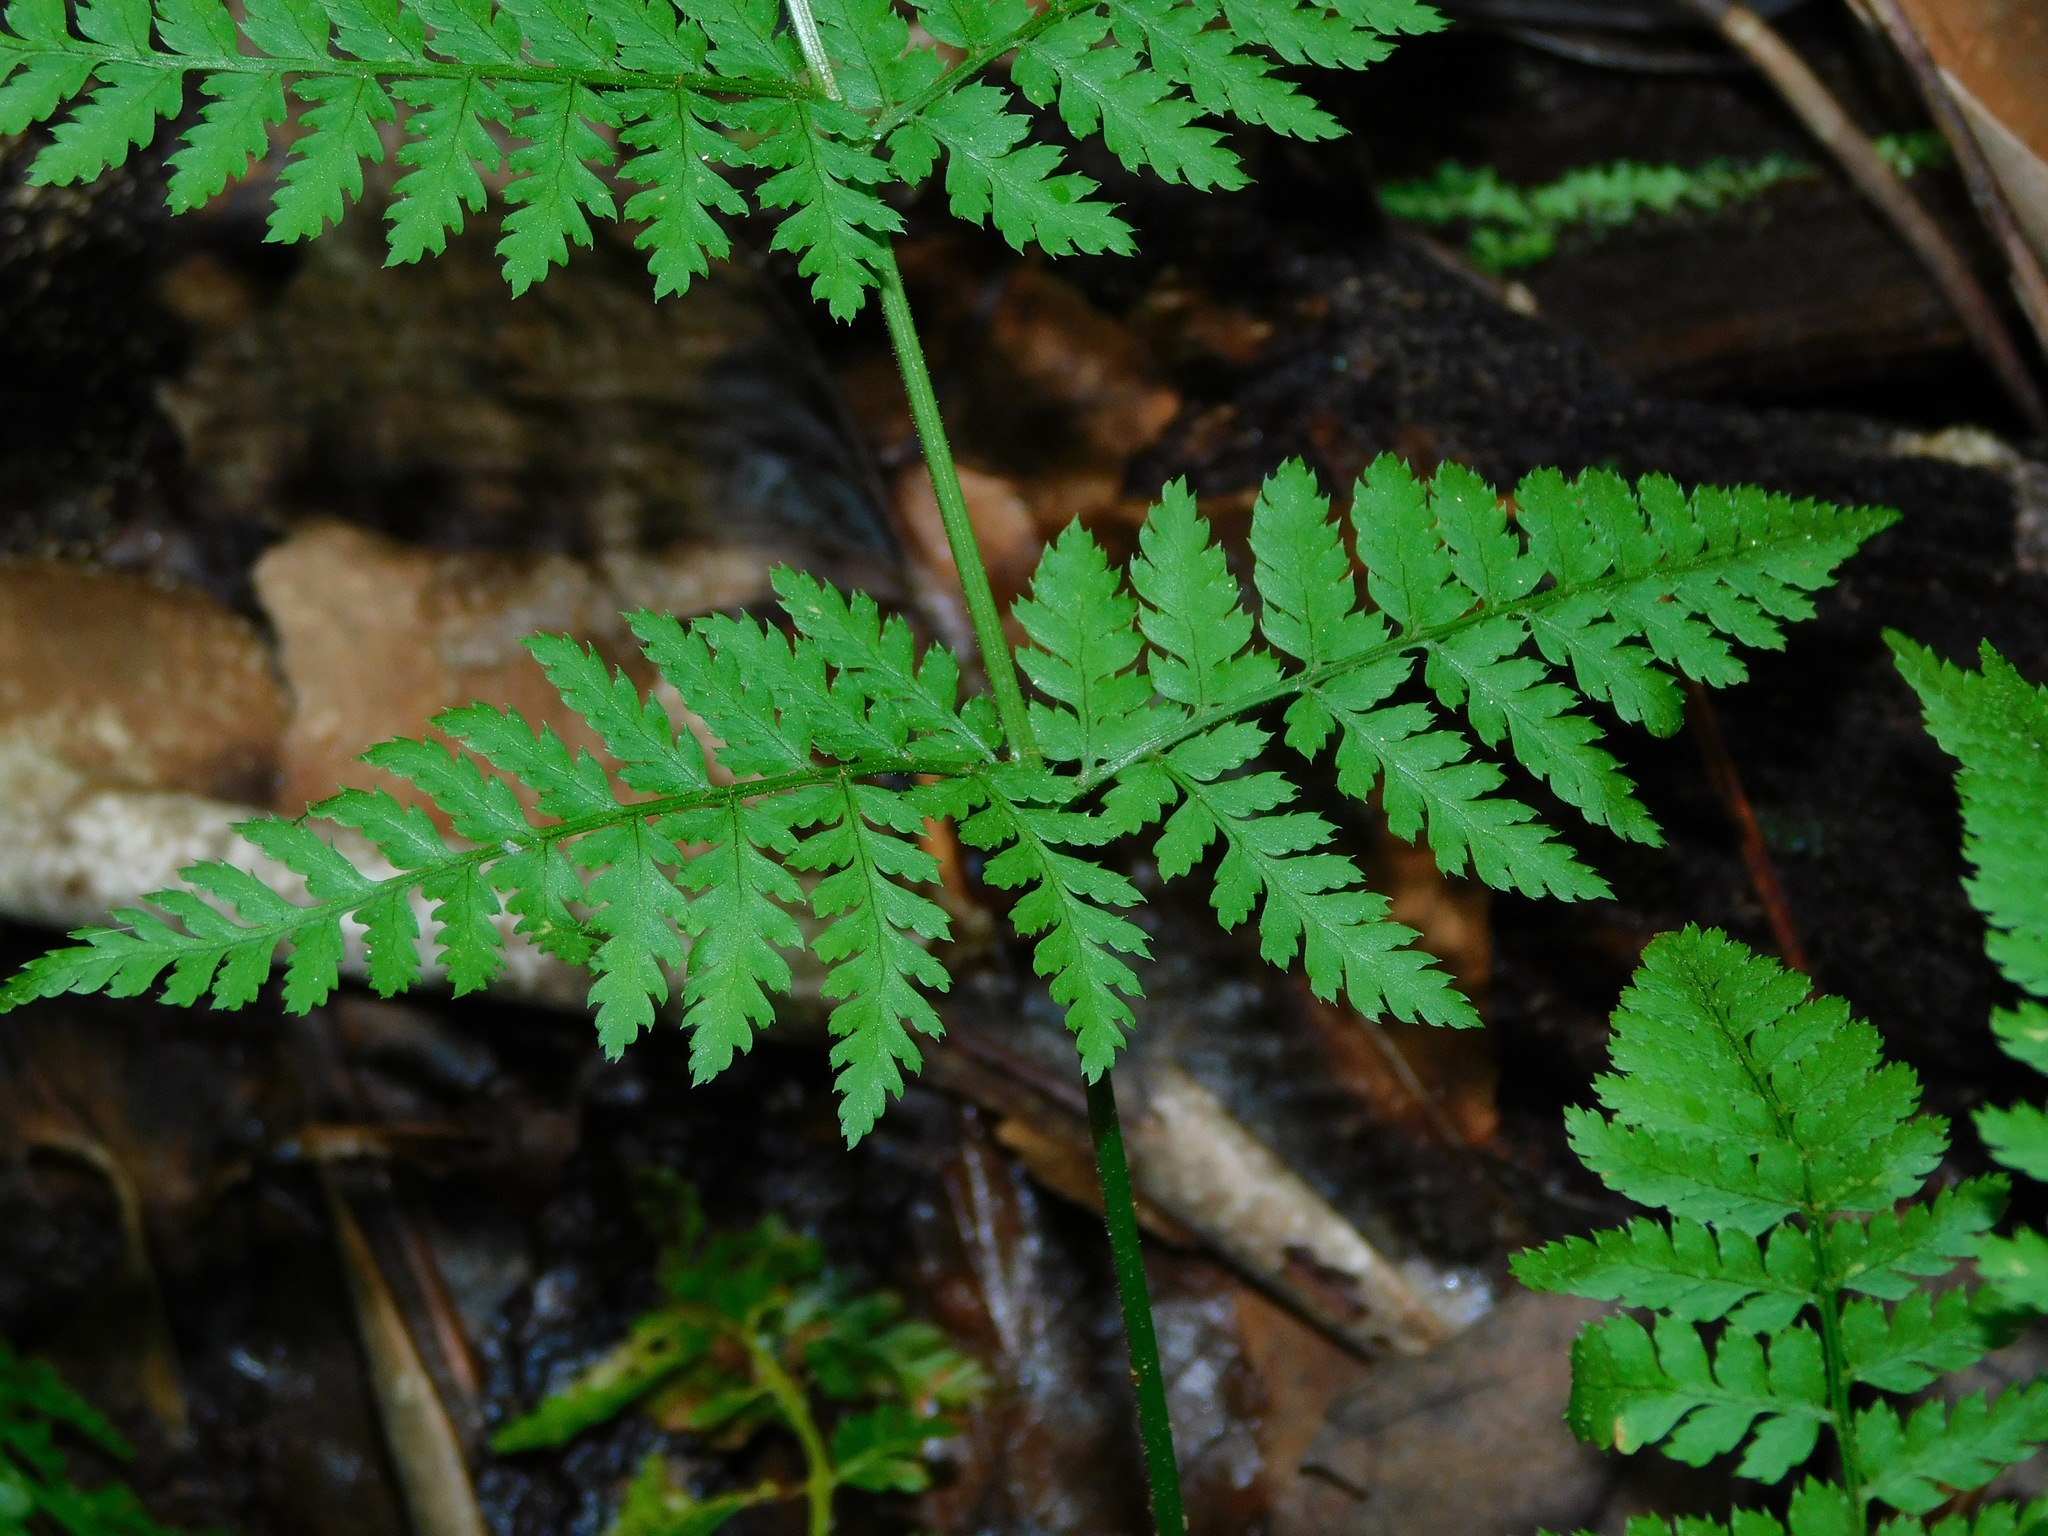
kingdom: Plantae
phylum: Tracheophyta
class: Polypodiopsida
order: Polypodiales
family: Dryopteridaceae
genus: Dryopteris
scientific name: Dryopteris intermedia
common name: Evergreen wood fern
